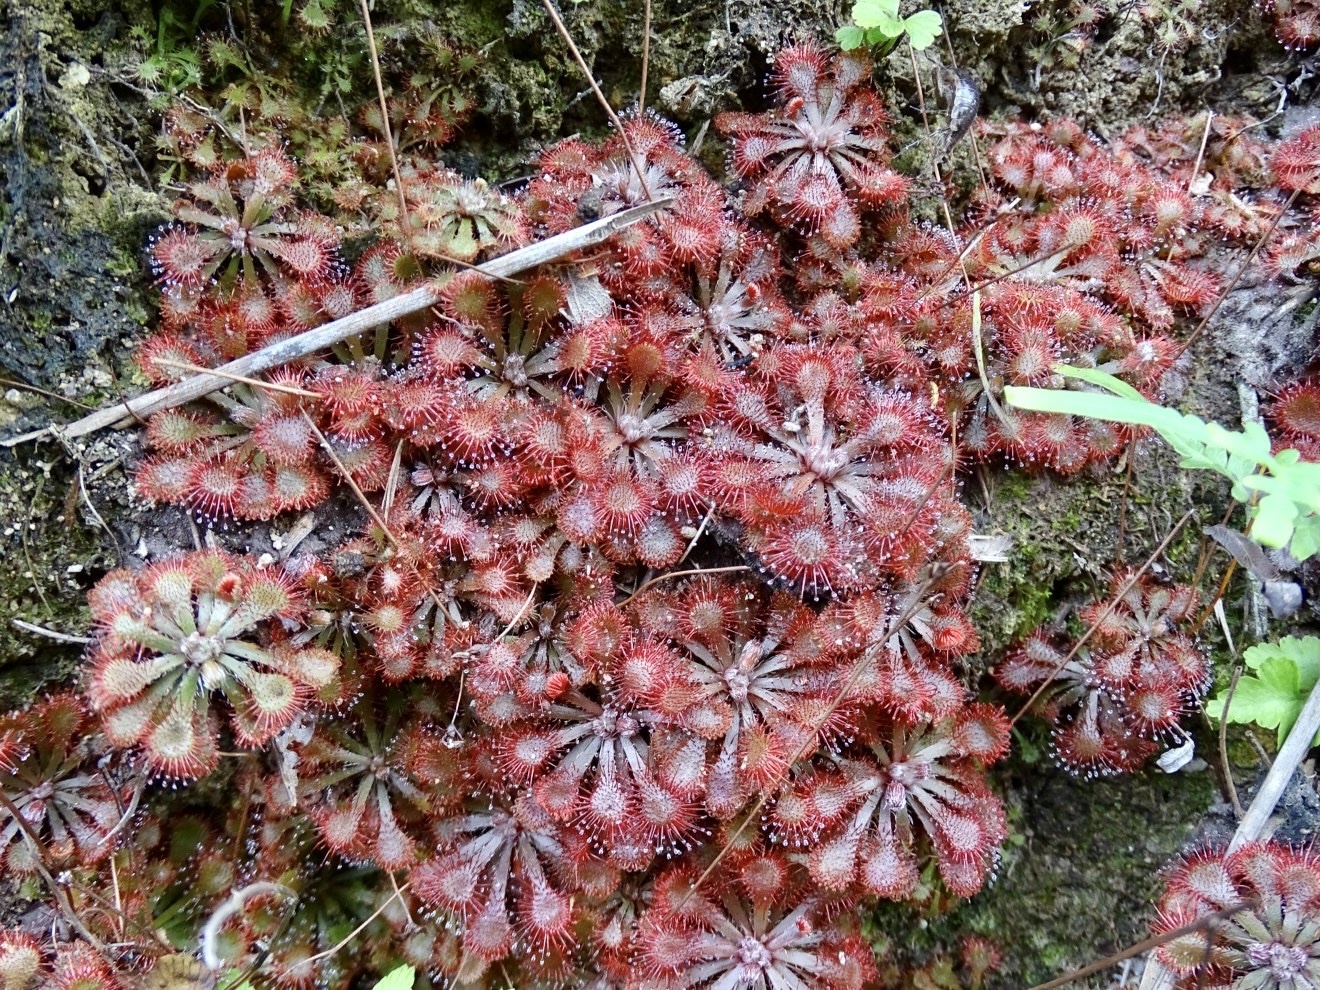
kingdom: Plantae
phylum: Tracheophyta
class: Magnoliopsida
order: Caryophyllales
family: Droseraceae
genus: Drosera
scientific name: Drosera spatulata
